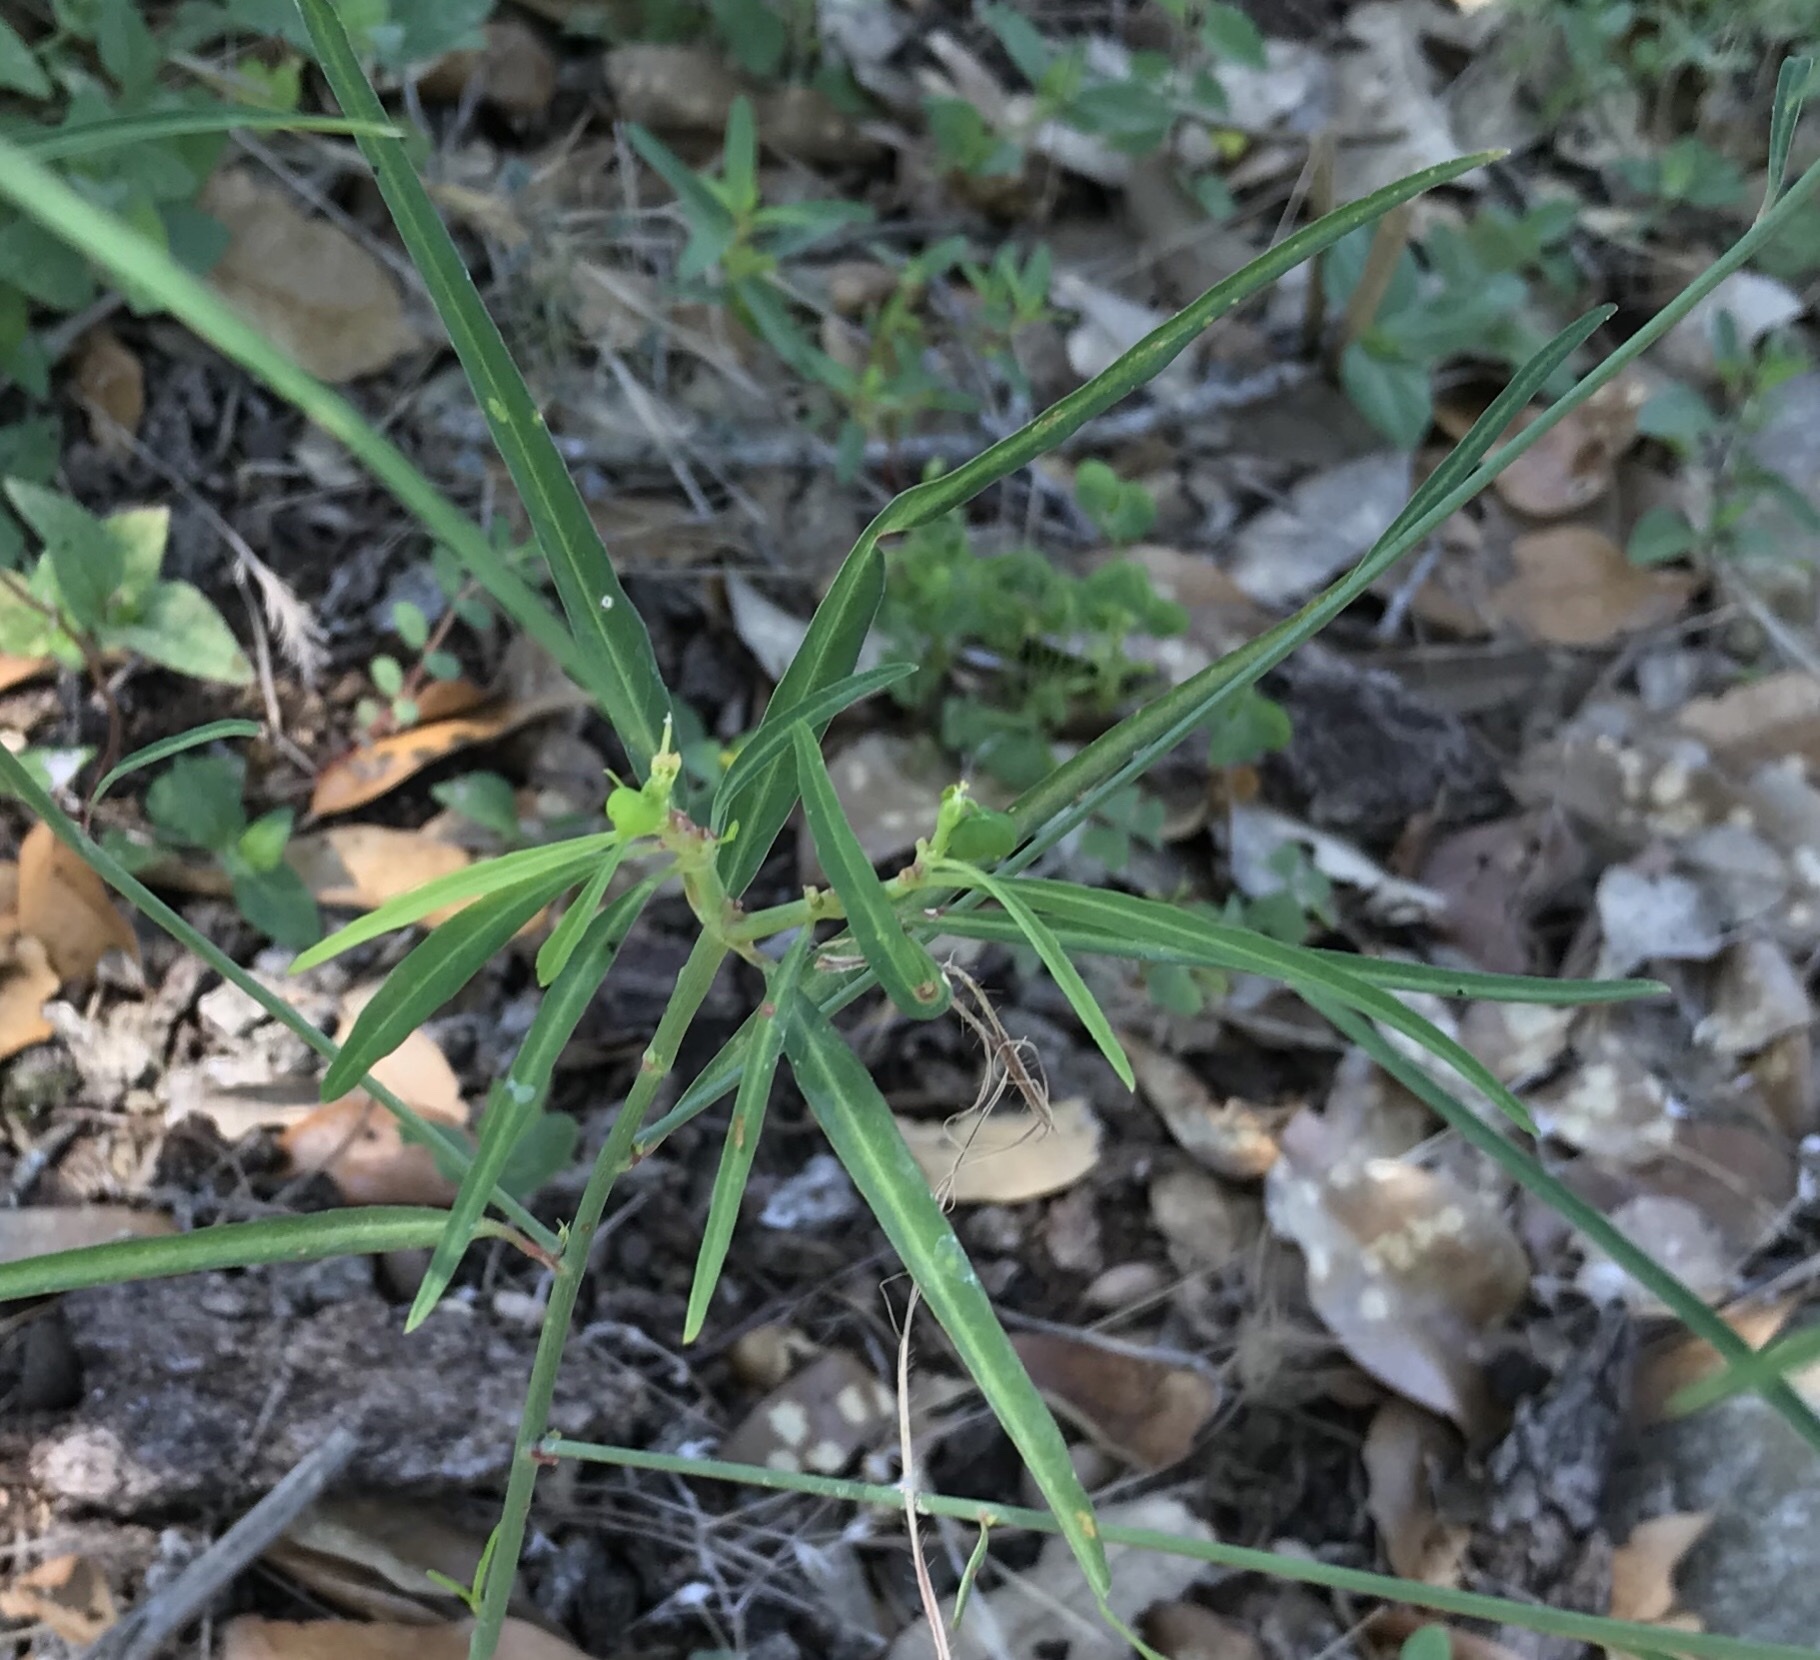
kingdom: Plantae
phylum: Tracheophyta
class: Magnoliopsida
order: Malpighiales
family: Euphorbiaceae
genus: Euphorbia
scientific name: Euphorbia heterophylla
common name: Mexican fireplant
